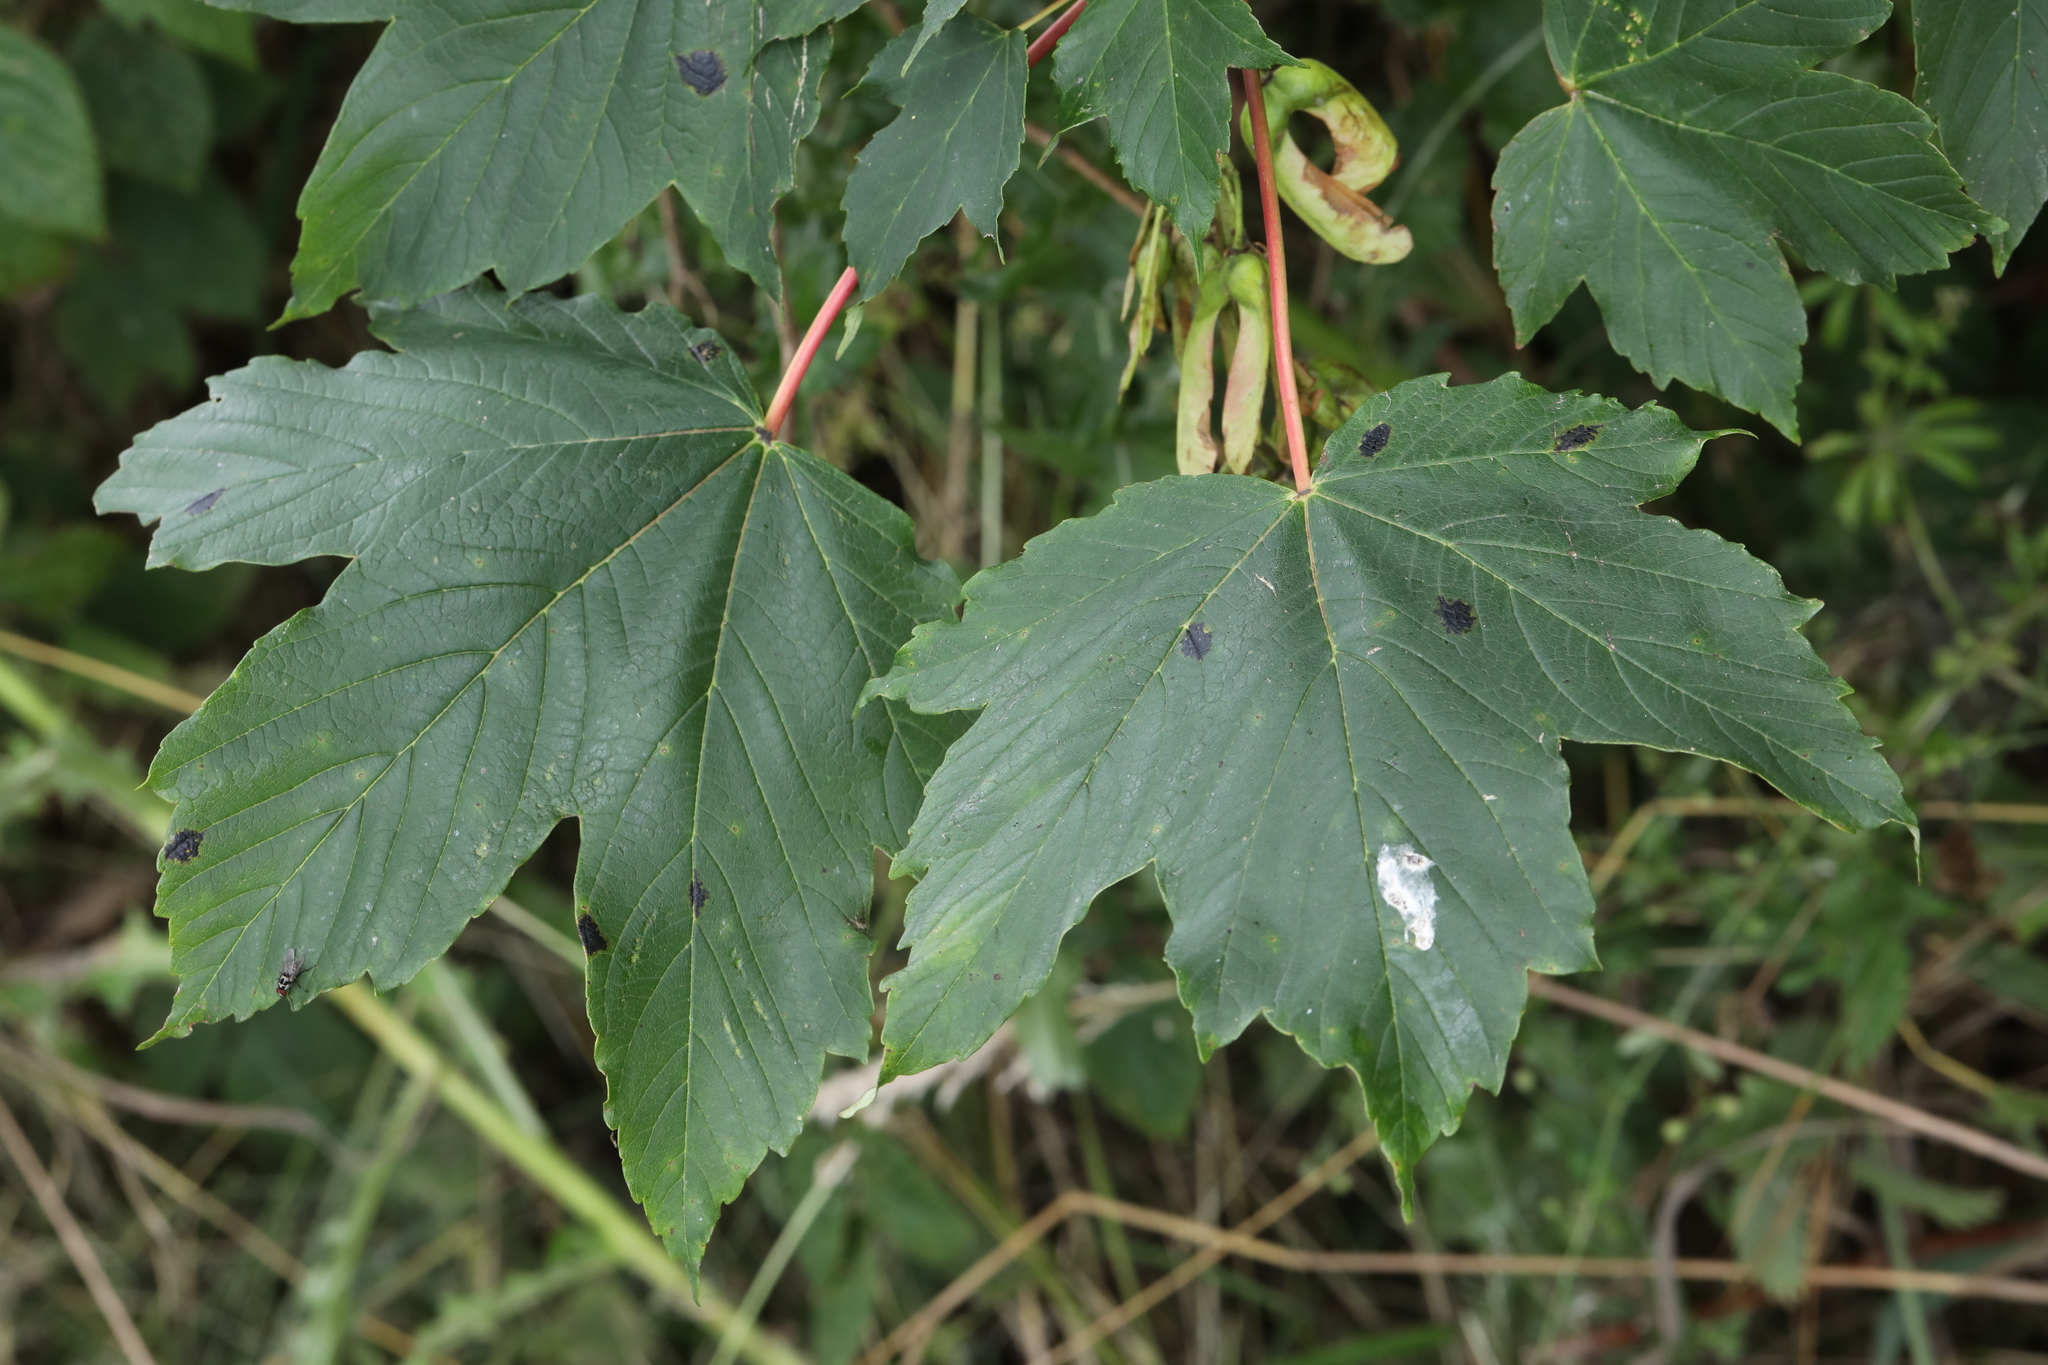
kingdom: Plantae
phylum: Tracheophyta
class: Magnoliopsida
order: Sapindales
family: Sapindaceae
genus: Acer
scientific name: Acer pseudoplatanus
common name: Sycamore
